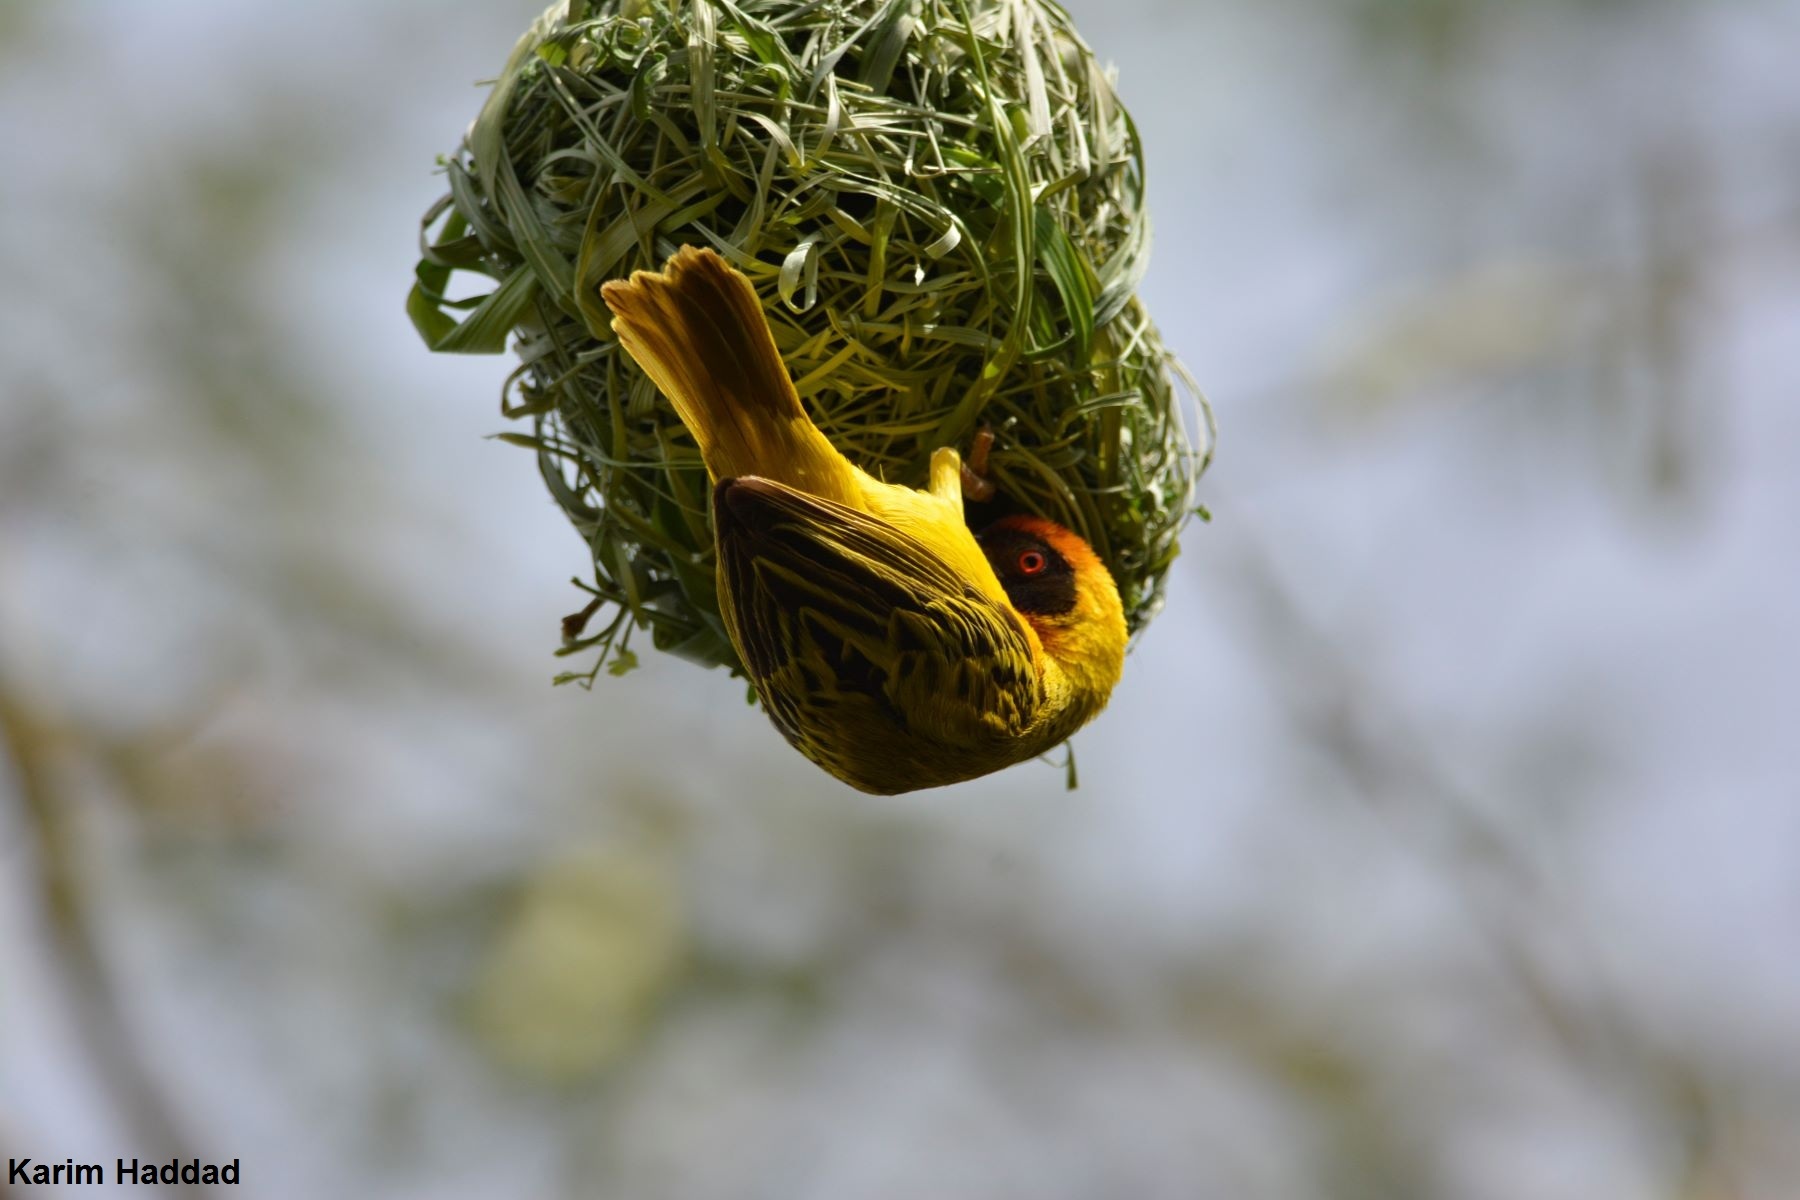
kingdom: Animalia
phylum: Chordata
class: Aves
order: Passeriformes
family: Ploceidae
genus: Ploceus
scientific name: Ploceus vitellinus
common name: Vitelline masked weaver
